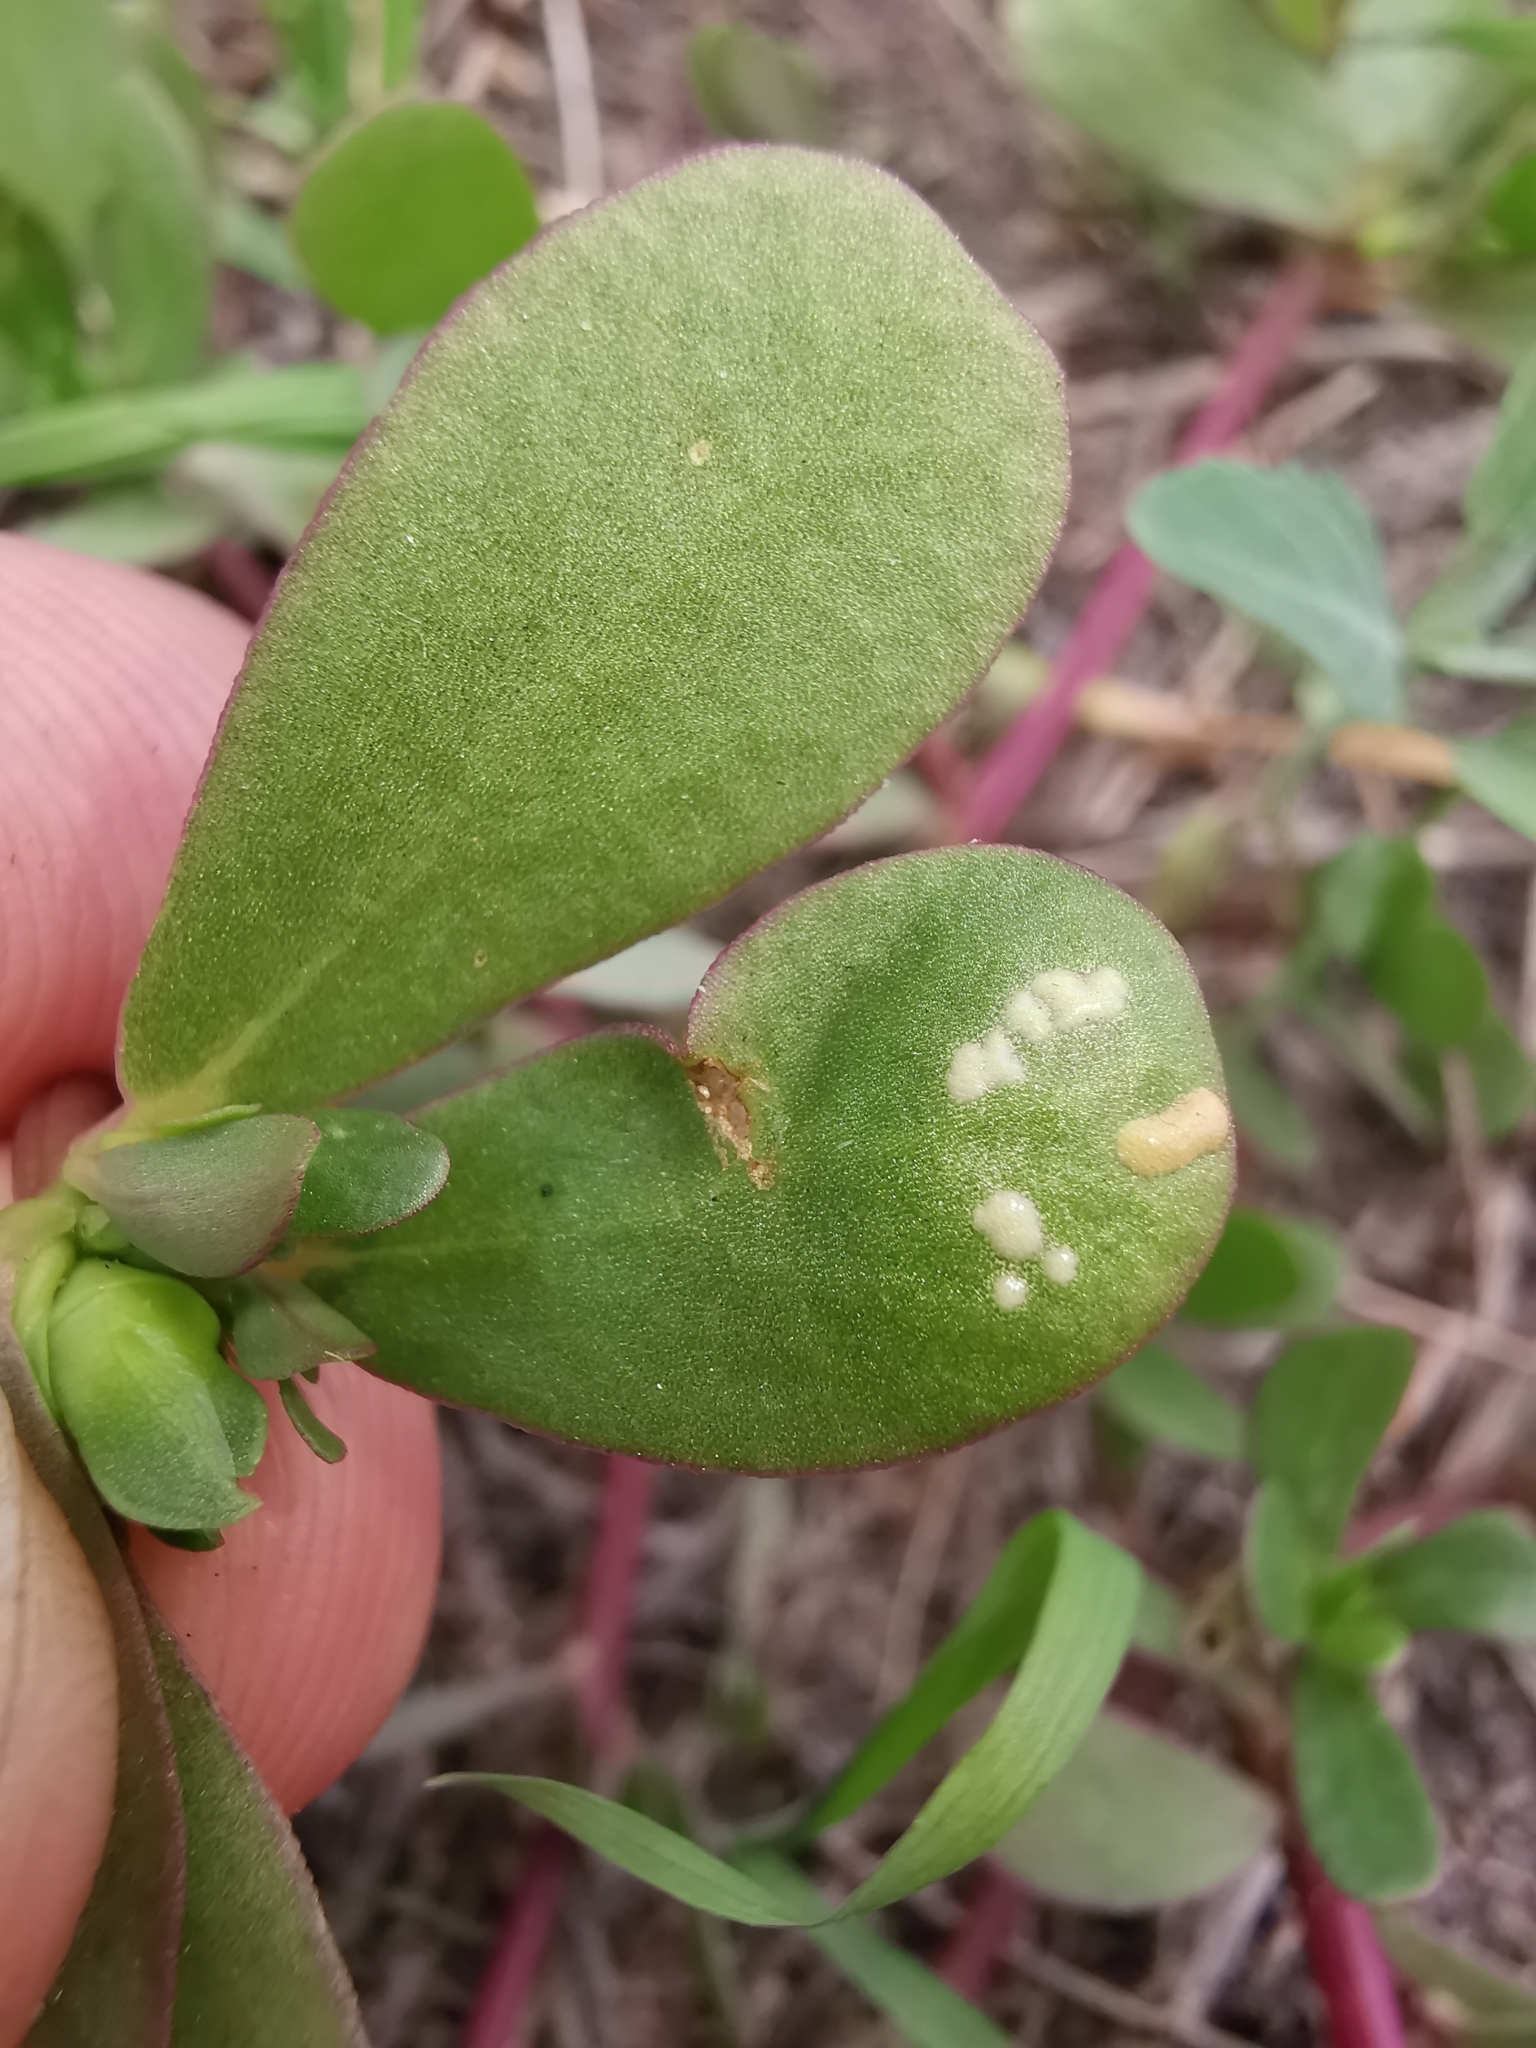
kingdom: Chromista
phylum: Oomycota
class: Peronosporea
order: Albuginales
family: Albuginaceae
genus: Wilsoniana
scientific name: Wilsoniana portulacae
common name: Purslane white rust
